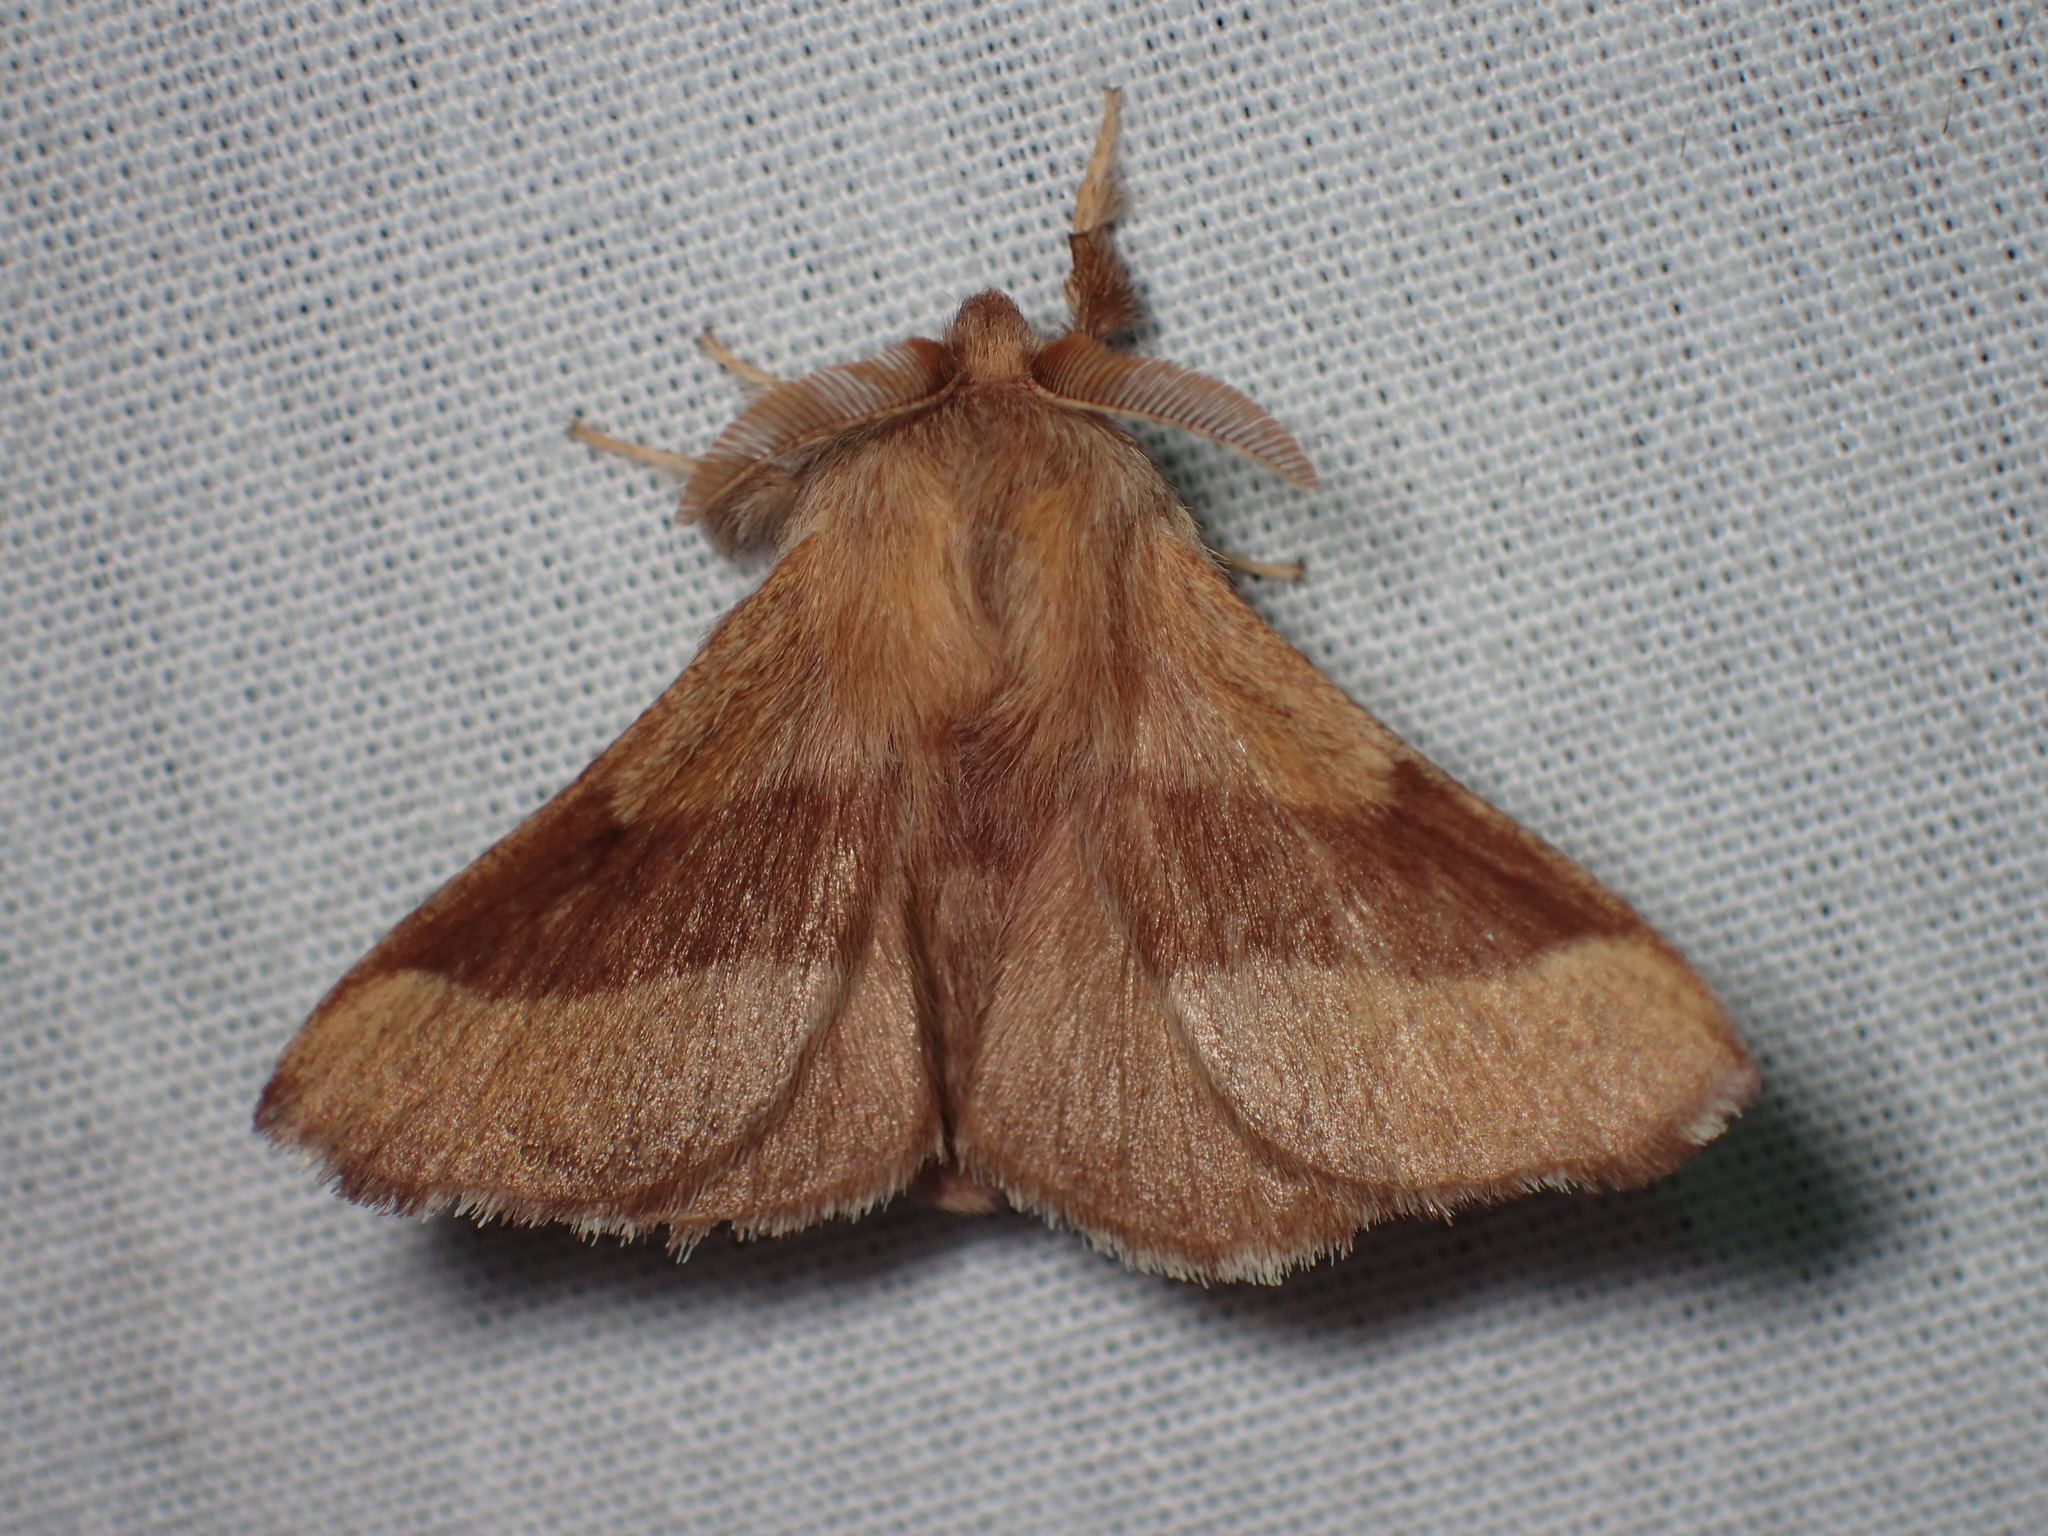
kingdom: Animalia
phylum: Arthropoda
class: Insecta
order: Lepidoptera
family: Lasiocampidae
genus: Malacosoma
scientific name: Malacosoma disstria
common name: Forest tent caterpillar
